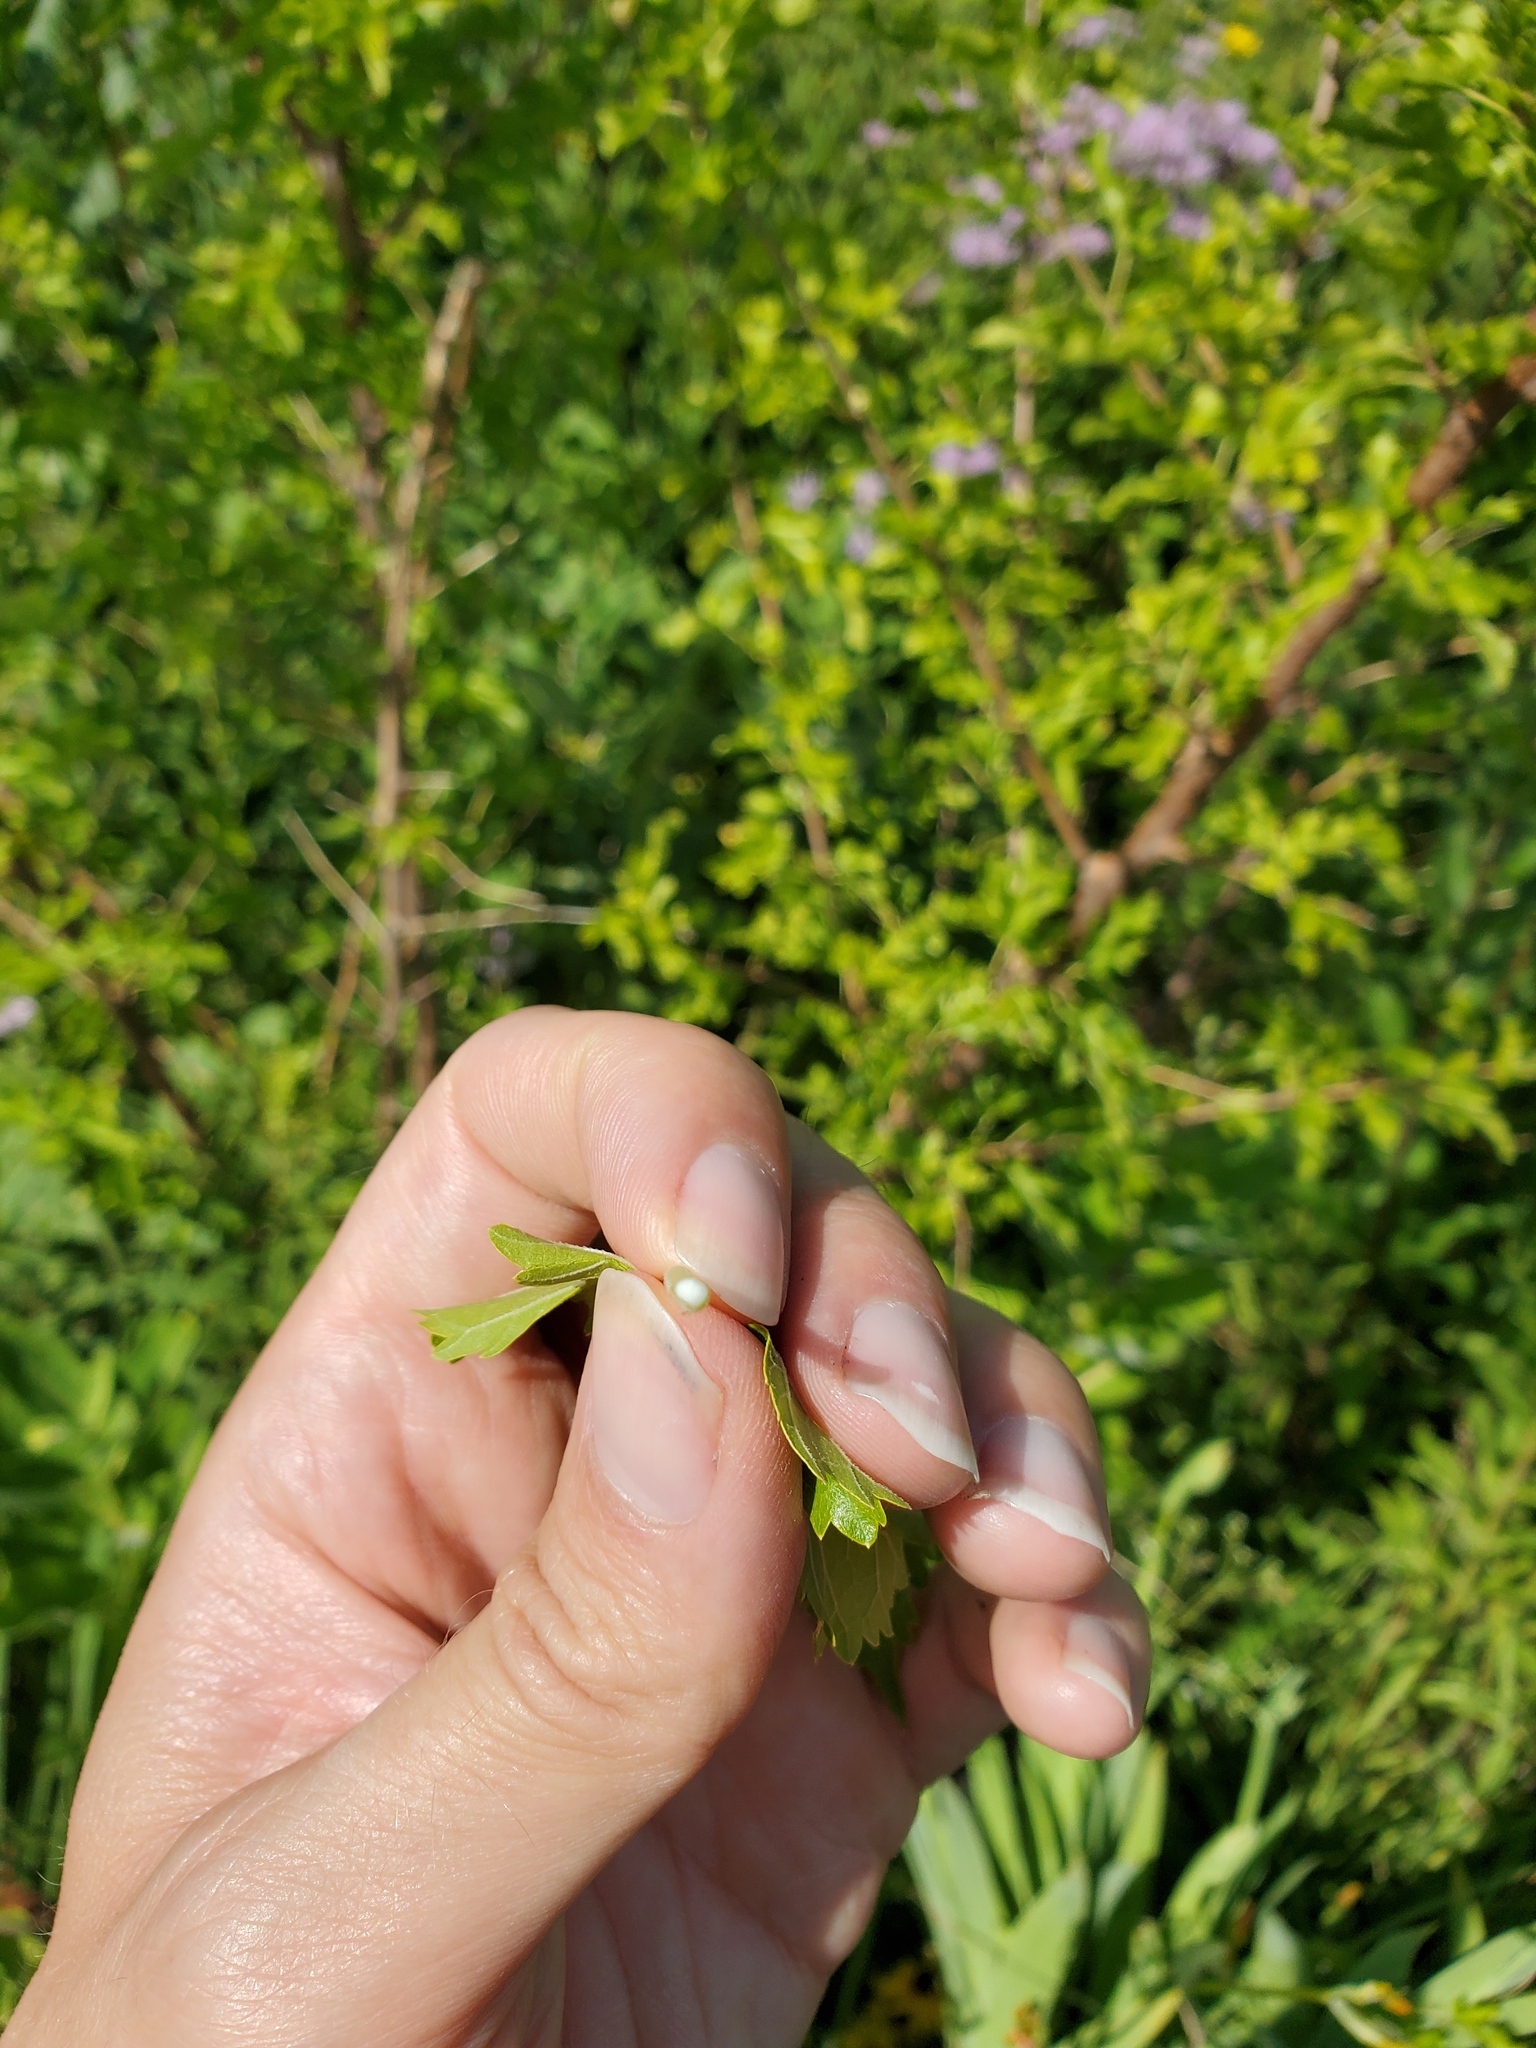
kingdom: Plantae
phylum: Tracheophyta
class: Magnoliopsida
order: Rosales
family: Moraceae
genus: Morus
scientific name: Morus alba
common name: White mulberry
